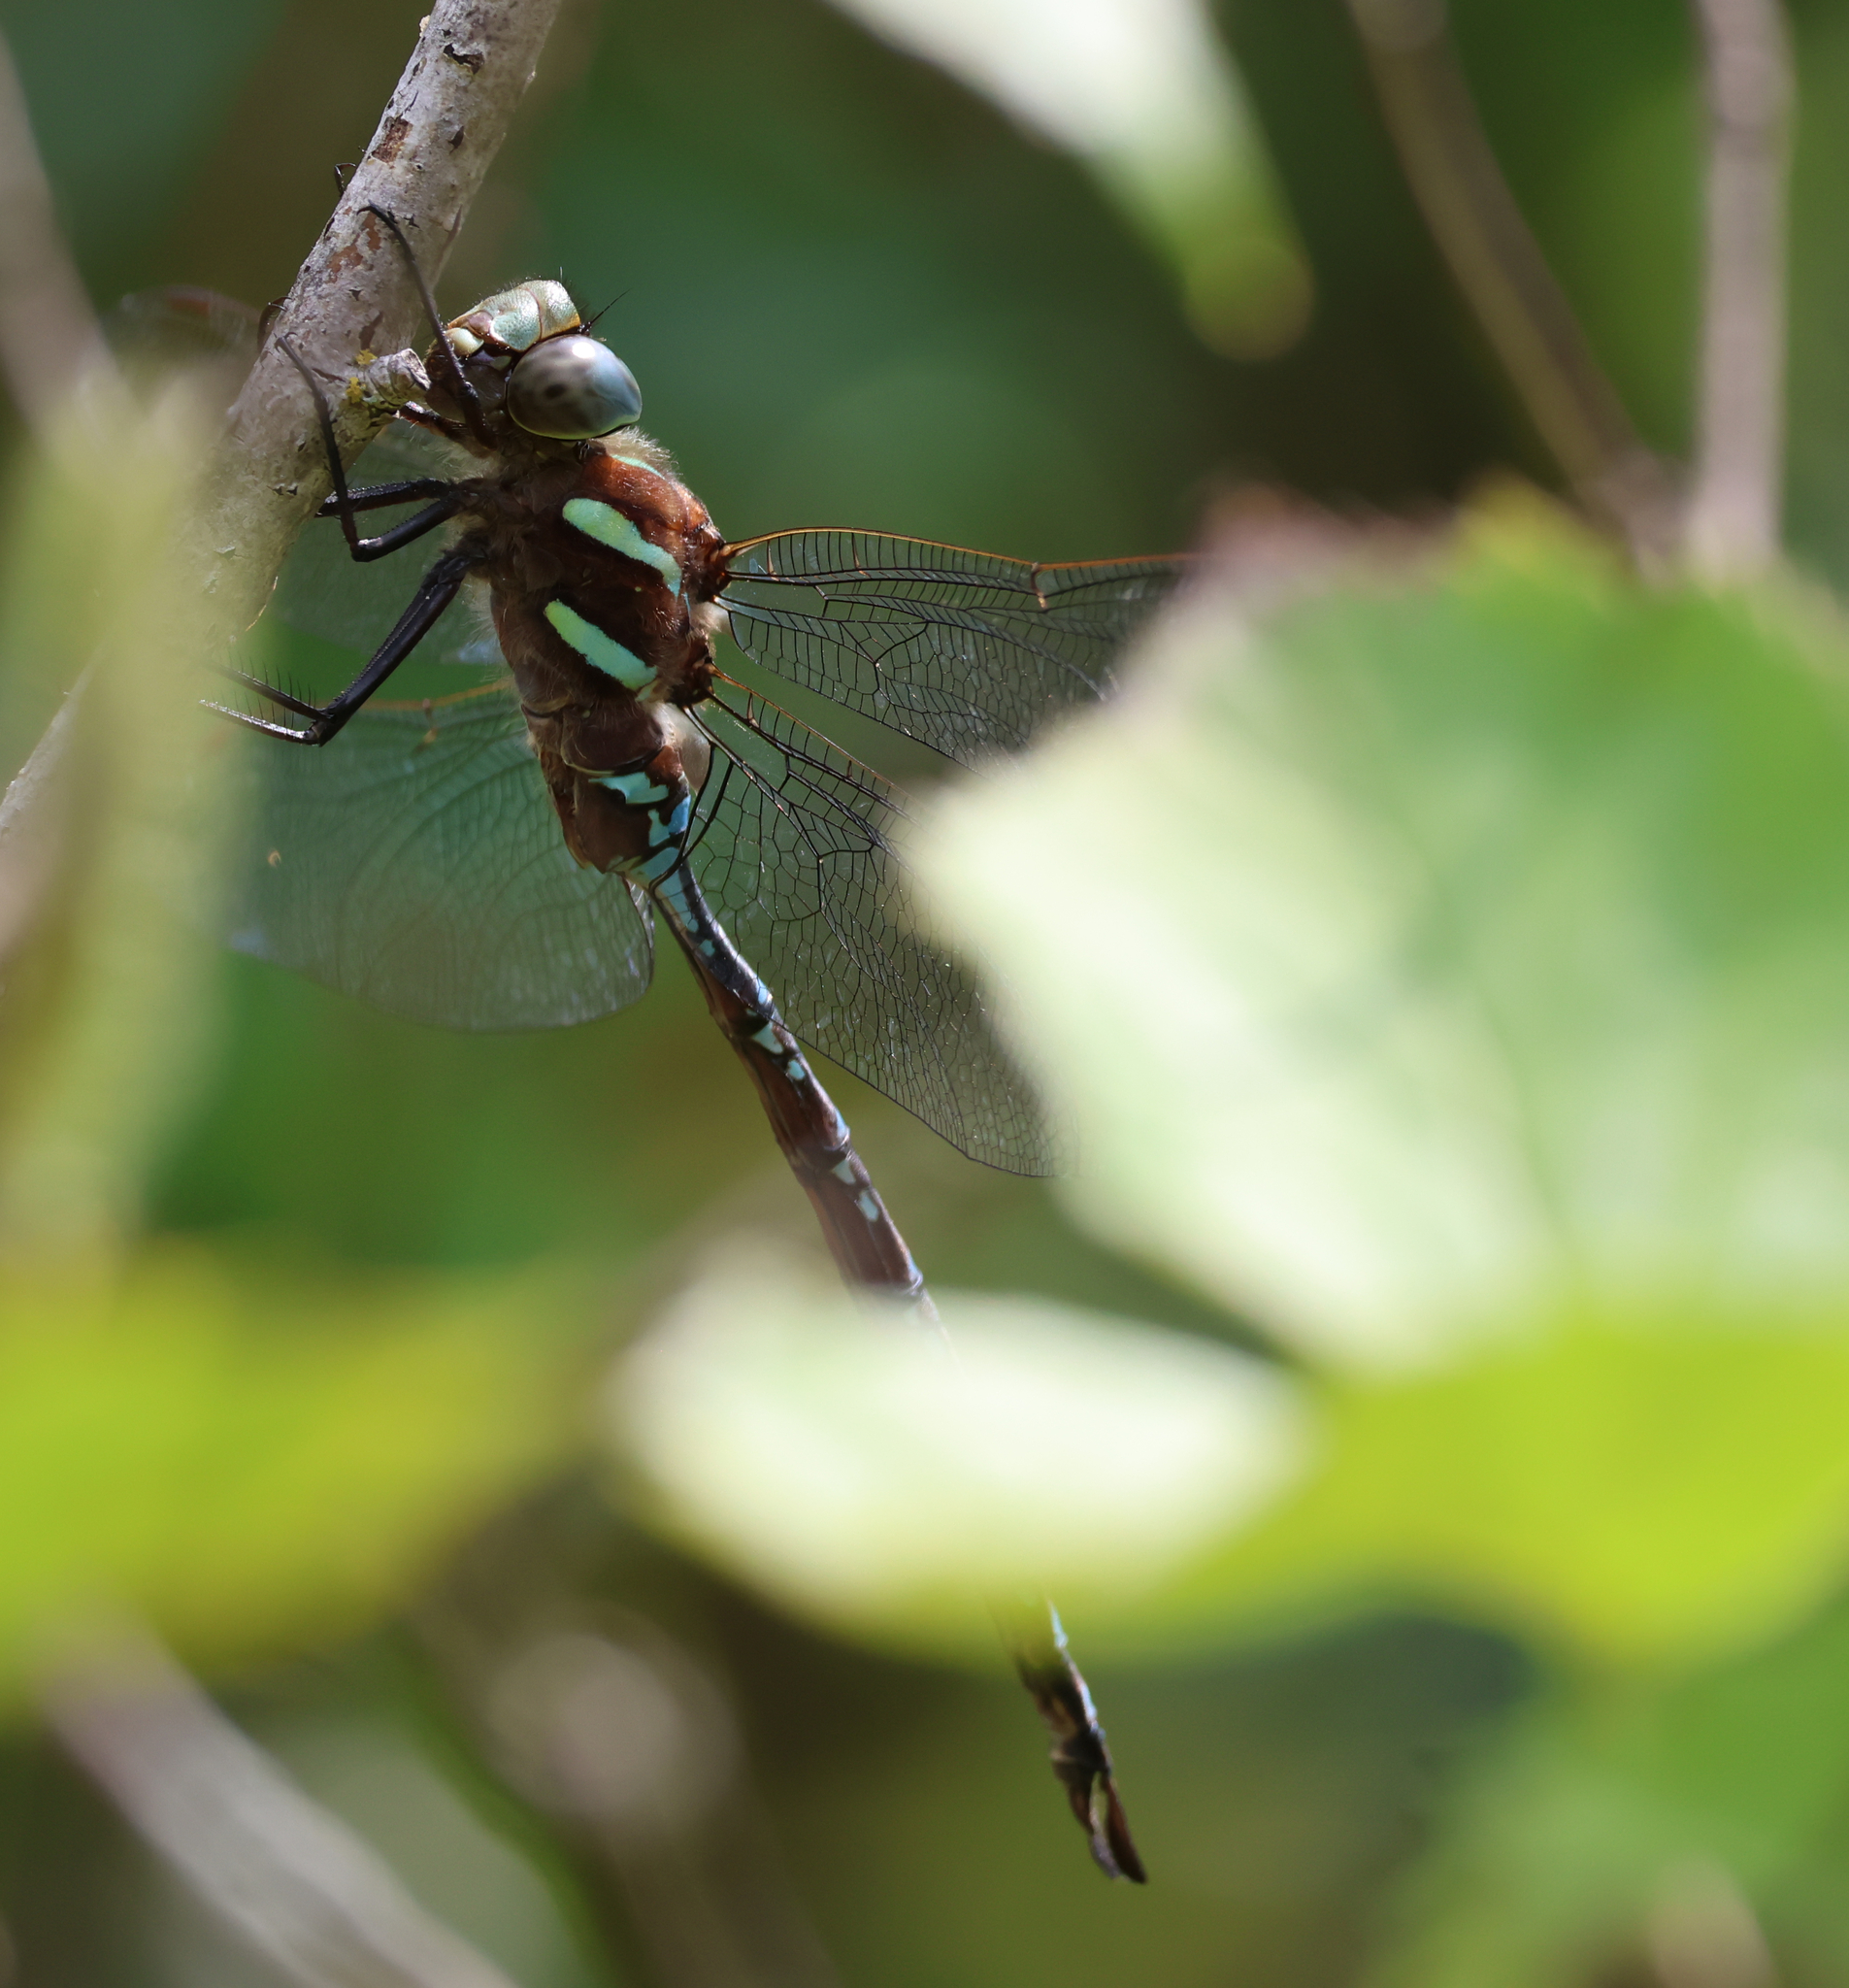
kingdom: Animalia
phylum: Arthropoda
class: Insecta
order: Odonata
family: Aeshnidae
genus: Aeshna
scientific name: Aeshna tuberculifera
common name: Aeschne à tubercules
